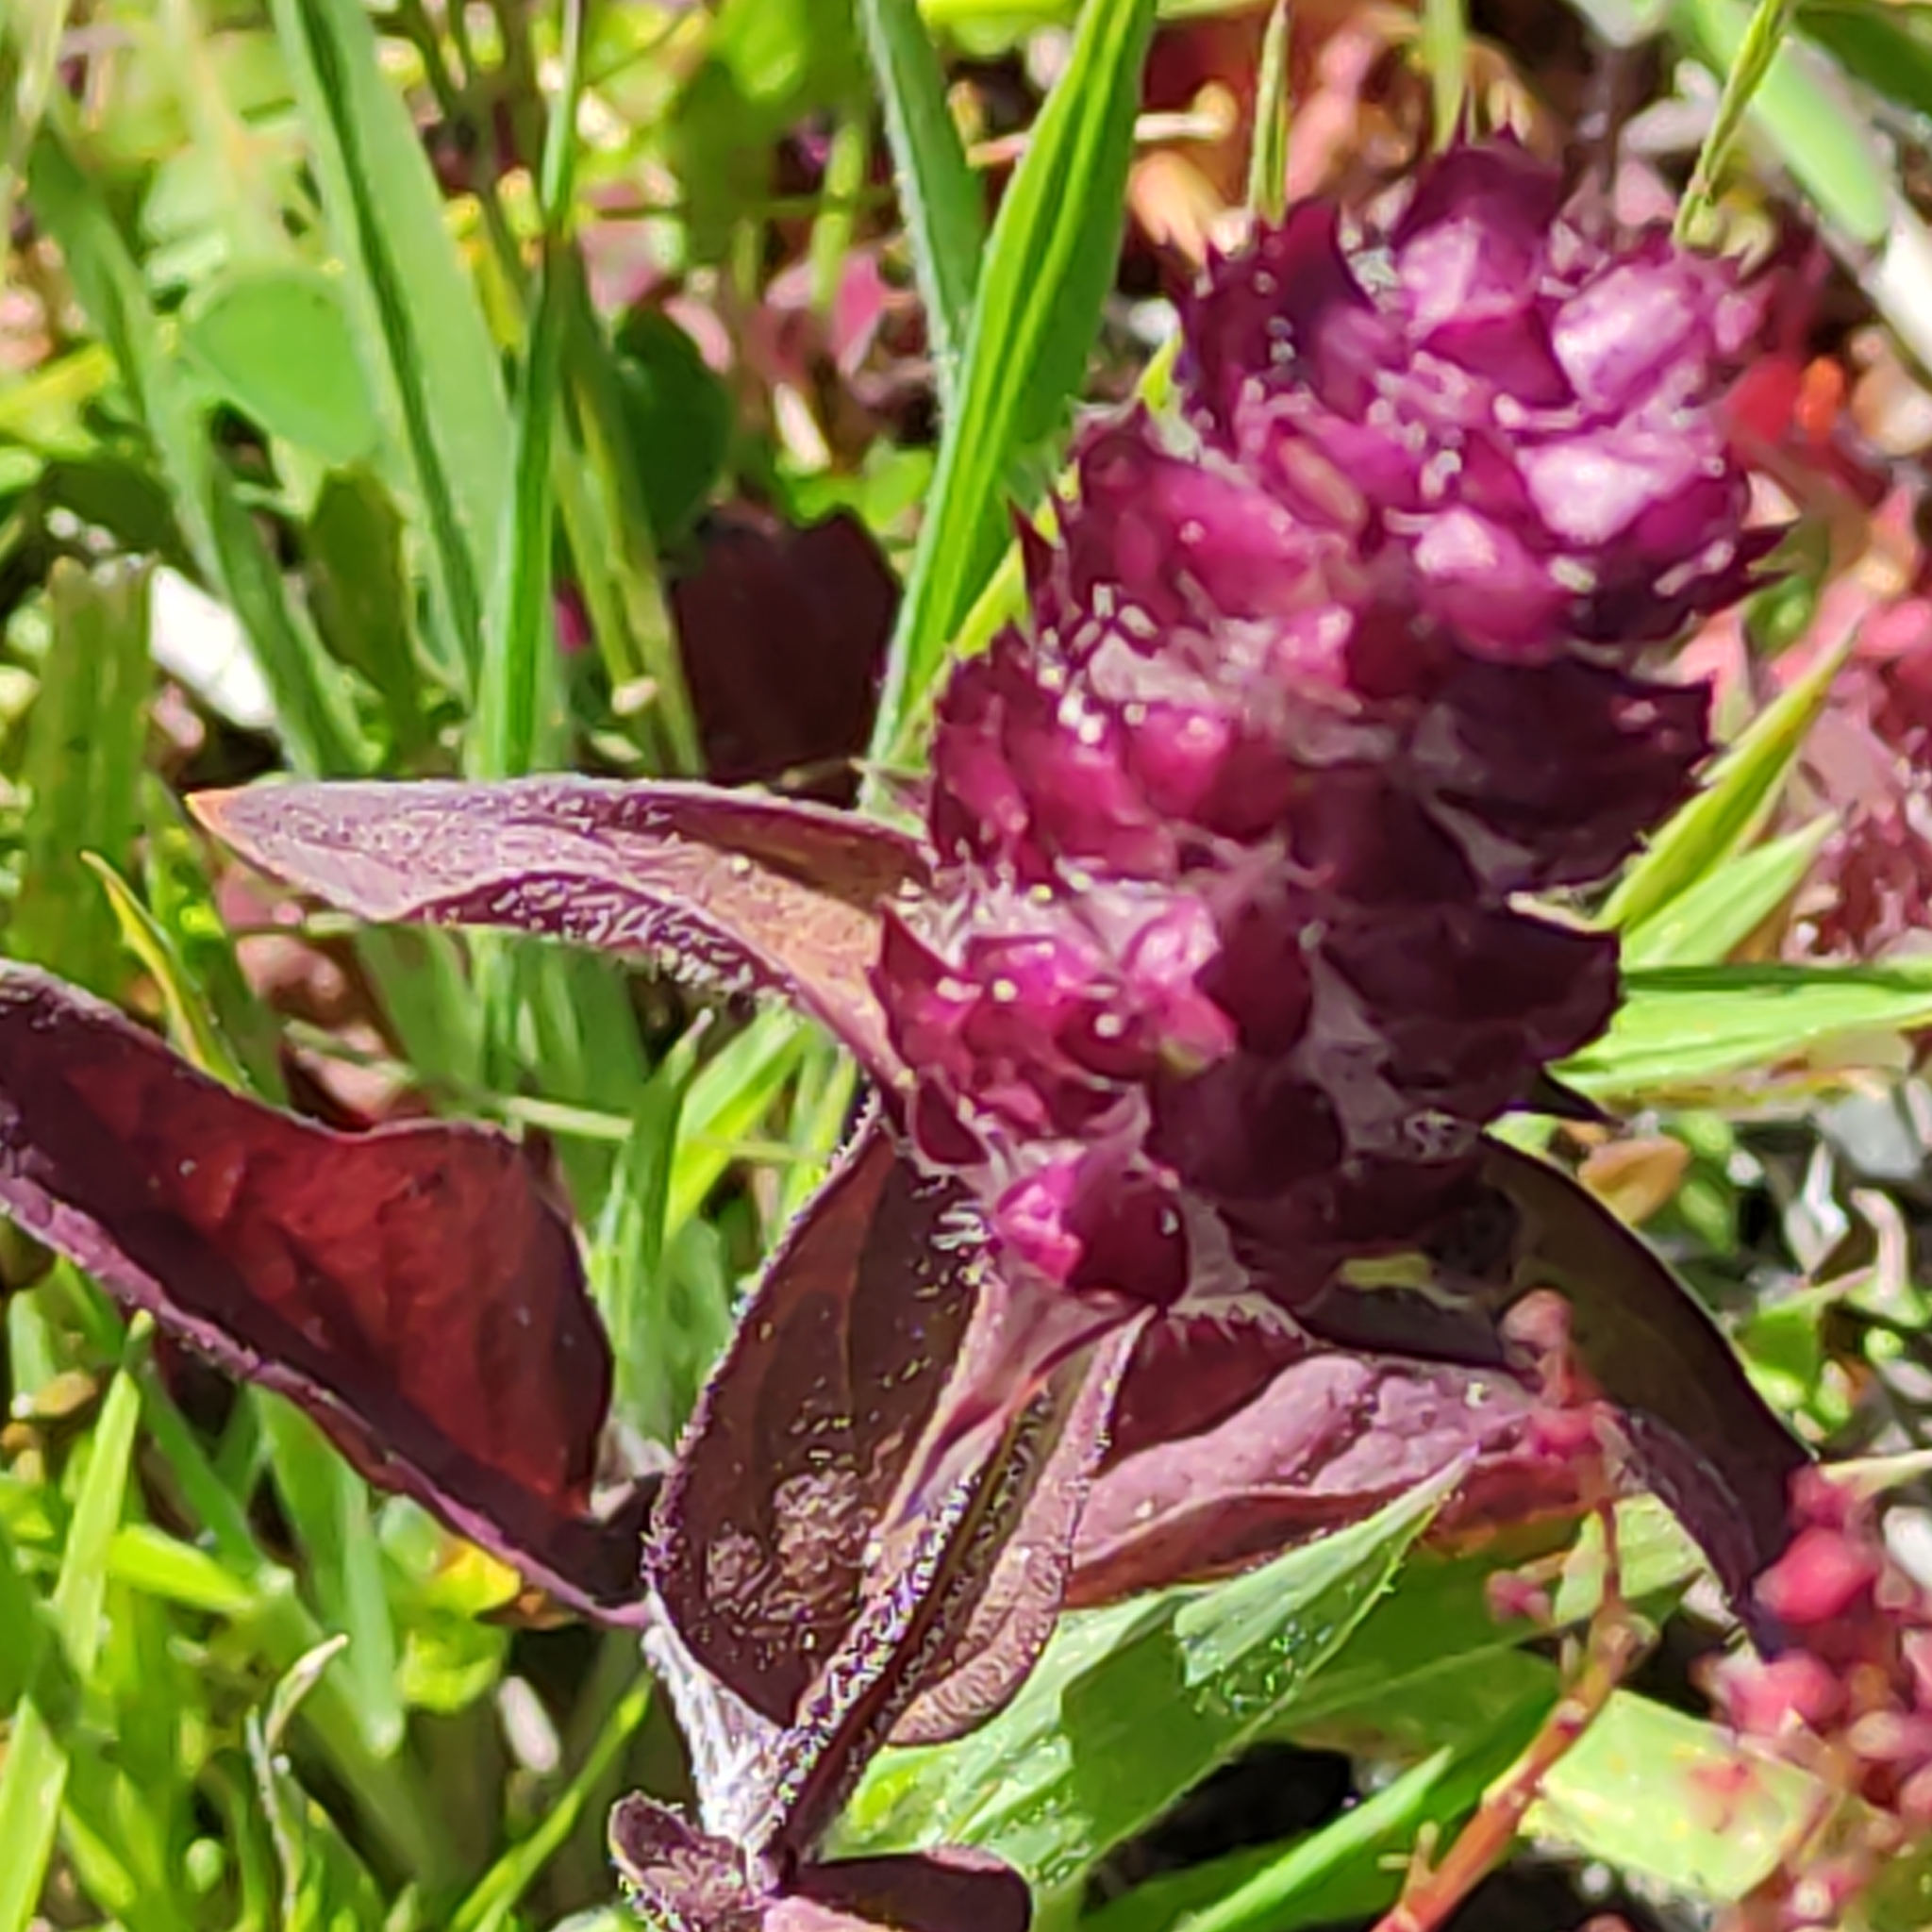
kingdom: Plantae
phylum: Tracheophyta
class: Magnoliopsida
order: Lamiales
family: Lamiaceae
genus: Prunella
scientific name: Prunella vulgaris
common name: Heal-all
